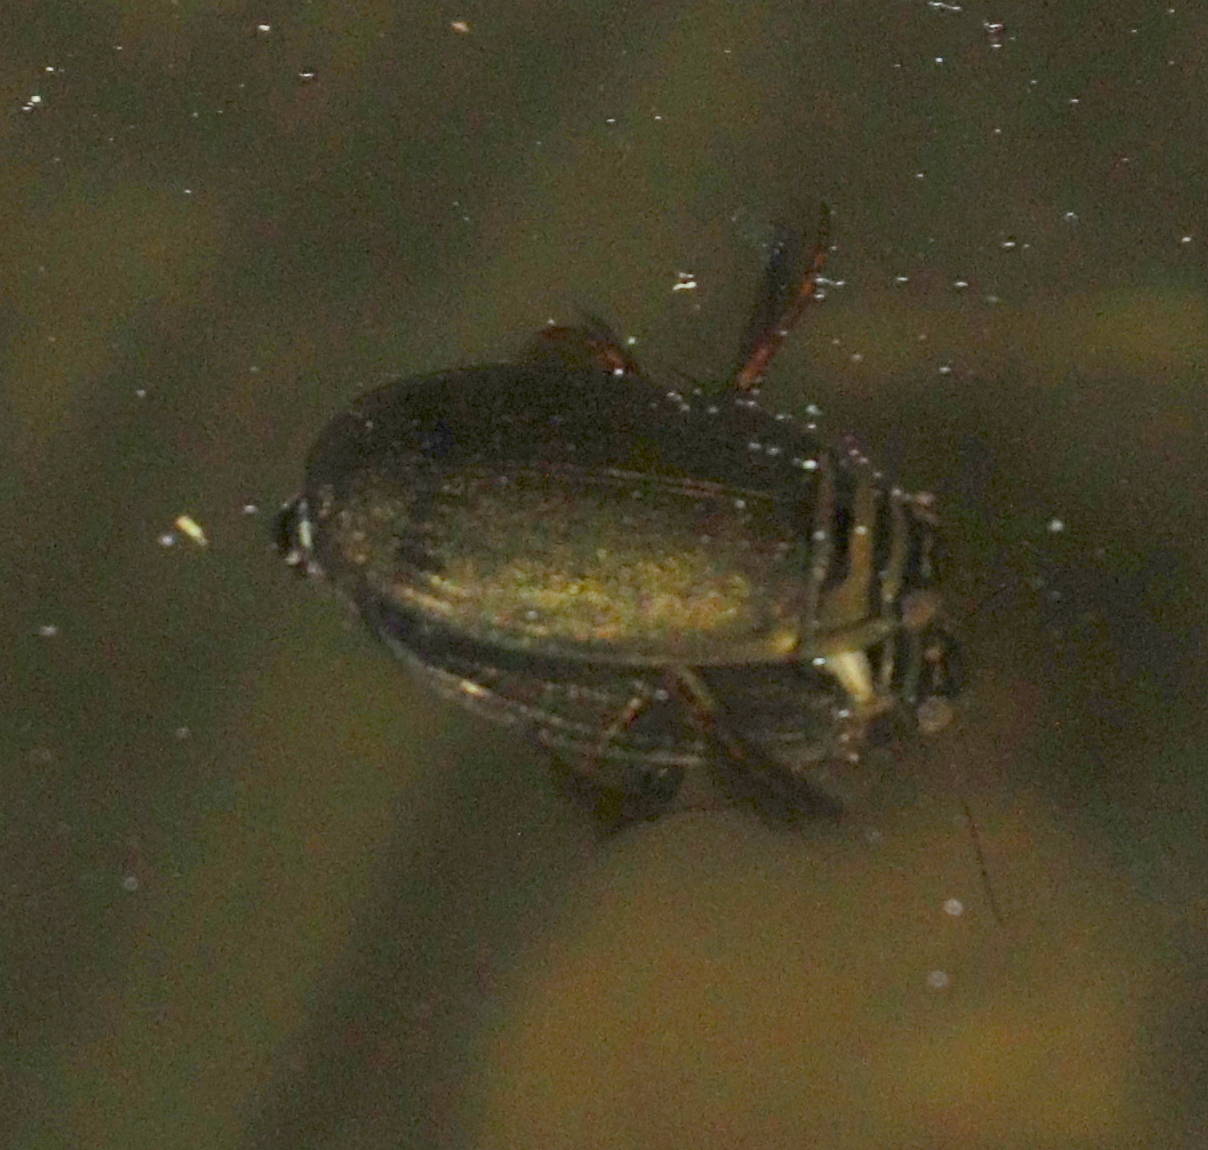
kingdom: Animalia
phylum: Arthropoda
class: Insecta
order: Coleoptera
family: Dytiscidae
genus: Acilius
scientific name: Acilius canaliculatus
